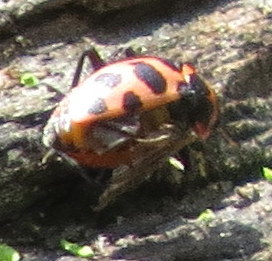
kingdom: Animalia
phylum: Arthropoda
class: Insecta
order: Coleoptera
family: Coccinellidae
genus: Coleomegilla
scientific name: Coleomegilla maculata
